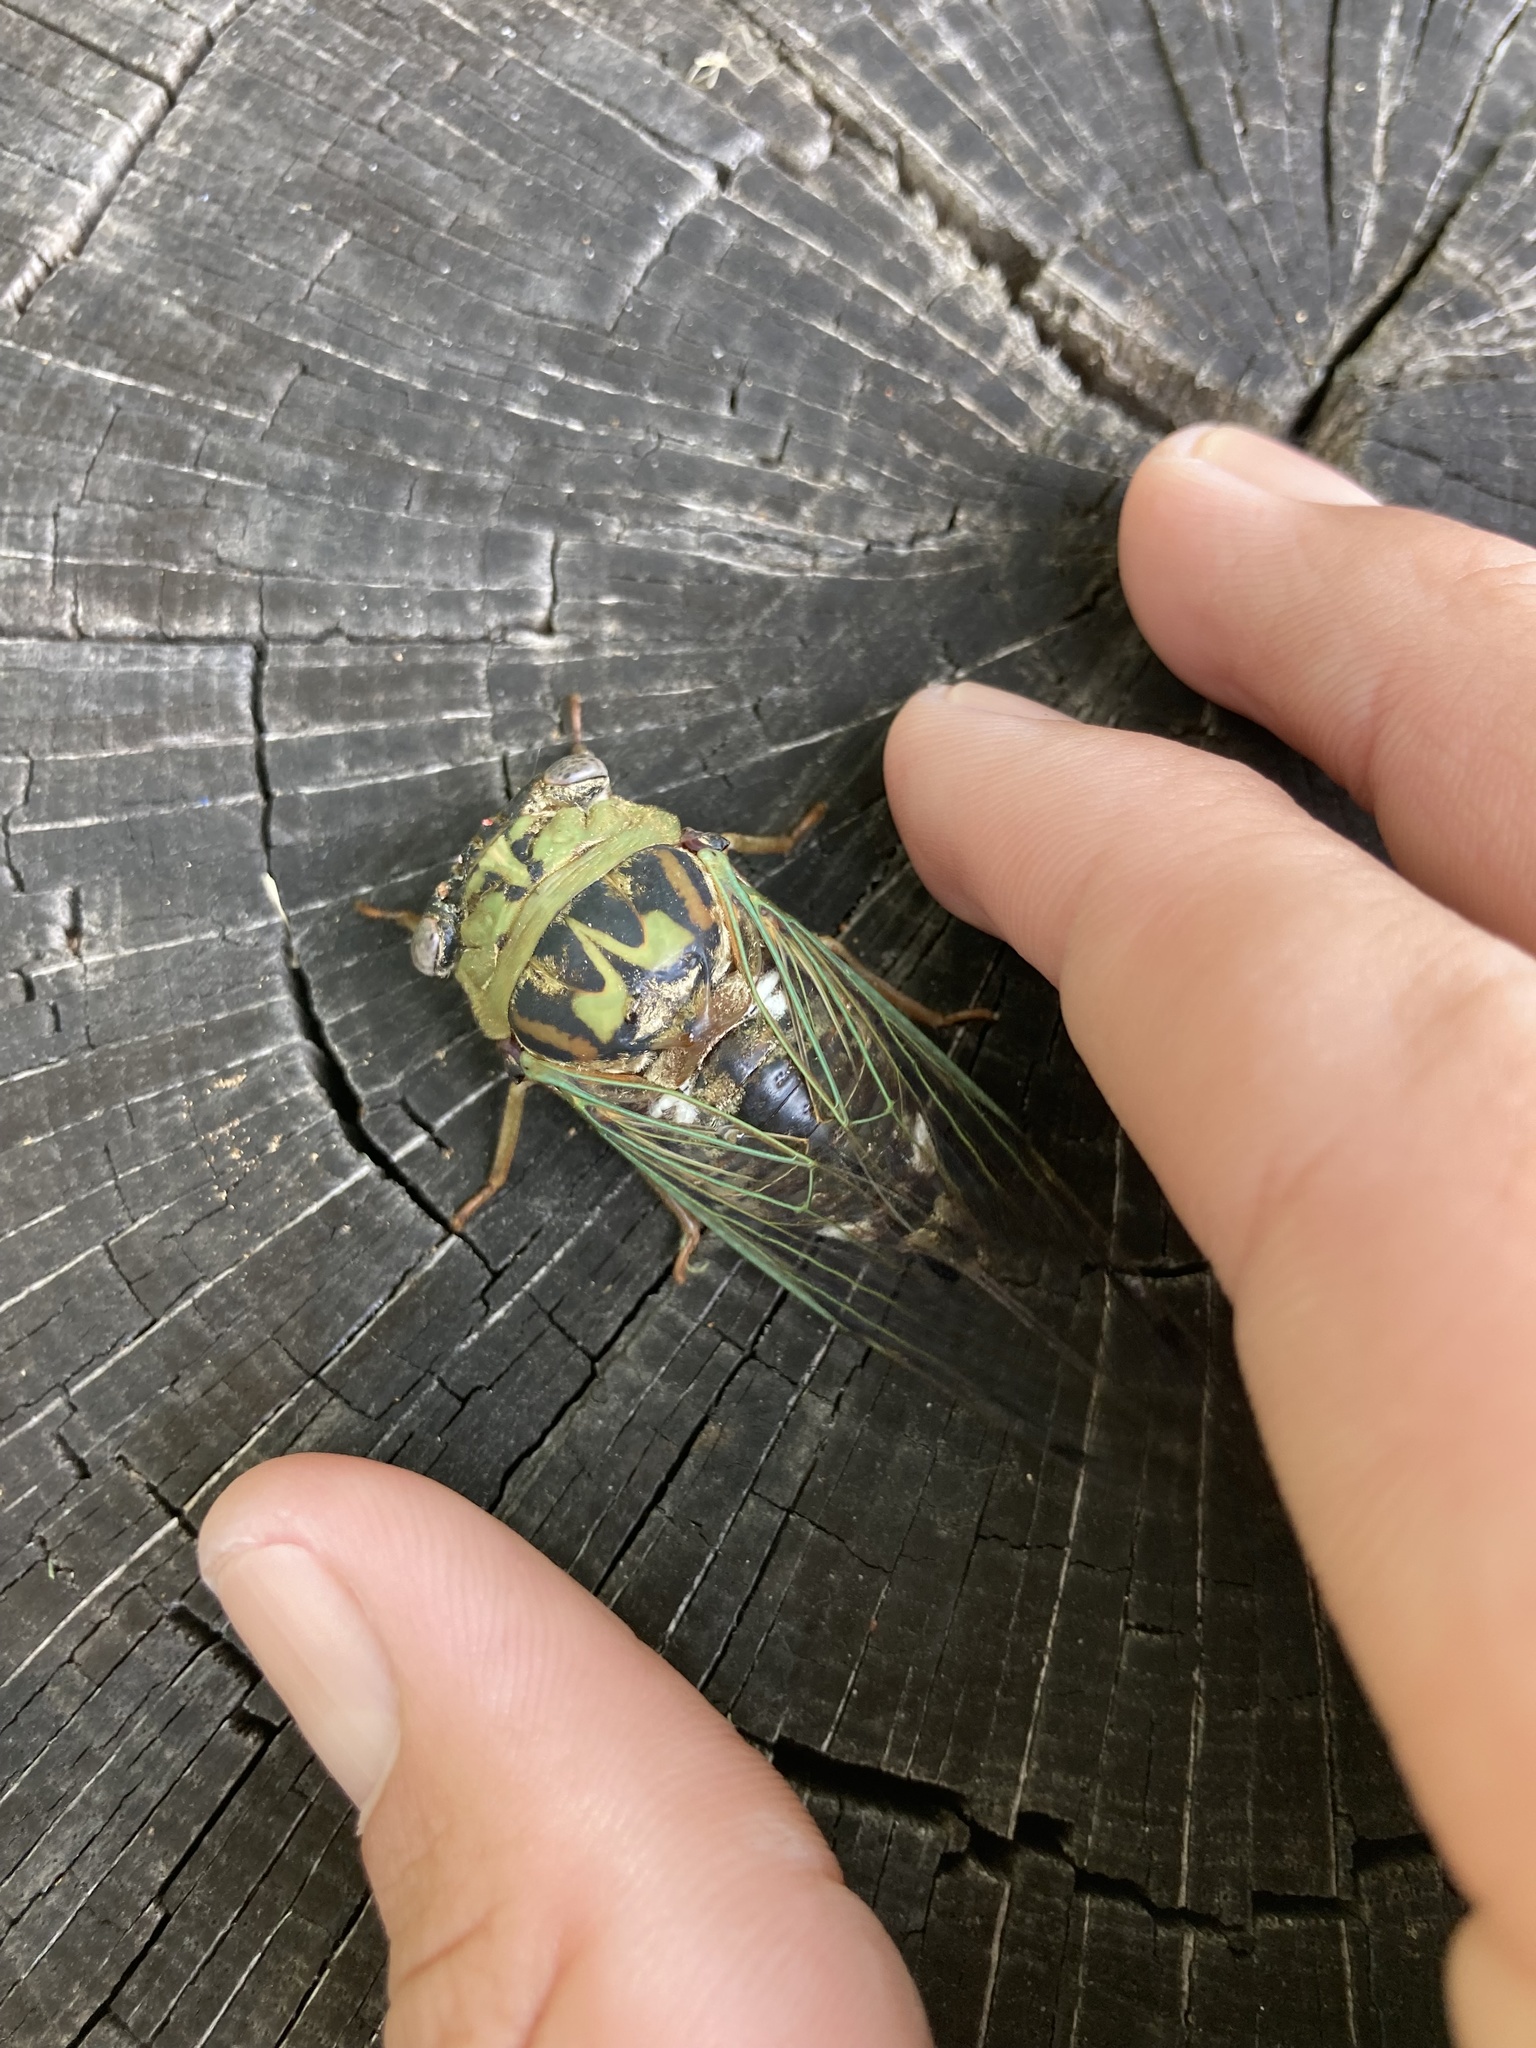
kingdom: Animalia
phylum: Arthropoda
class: Insecta
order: Hemiptera
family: Cicadidae
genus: Megatibicen
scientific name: Megatibicen resh
